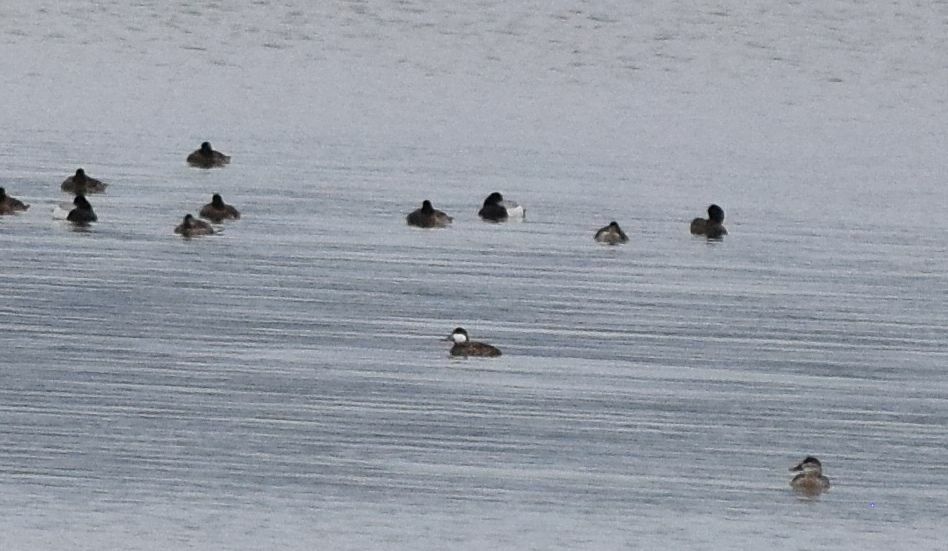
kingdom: Animalia
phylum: Chordata
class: Aves
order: Anseriformes
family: Anatidae
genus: Oxyura
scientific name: Oxyura jamaicensis
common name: Ruddy duck
